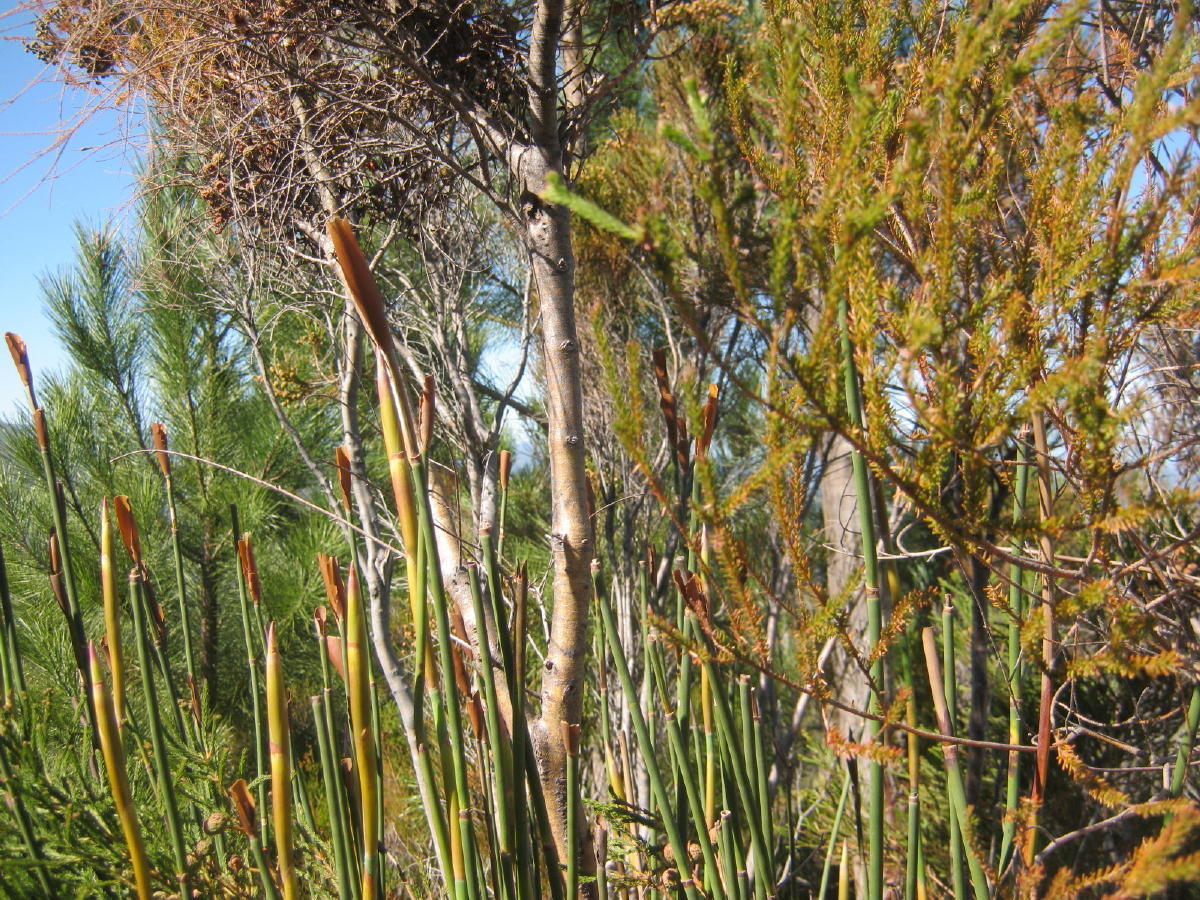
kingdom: Plantae
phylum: Tracheophyta
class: Liliopsida
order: Poales
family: Restionaceae
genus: Elegia
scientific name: Elegia thyrsoidea
